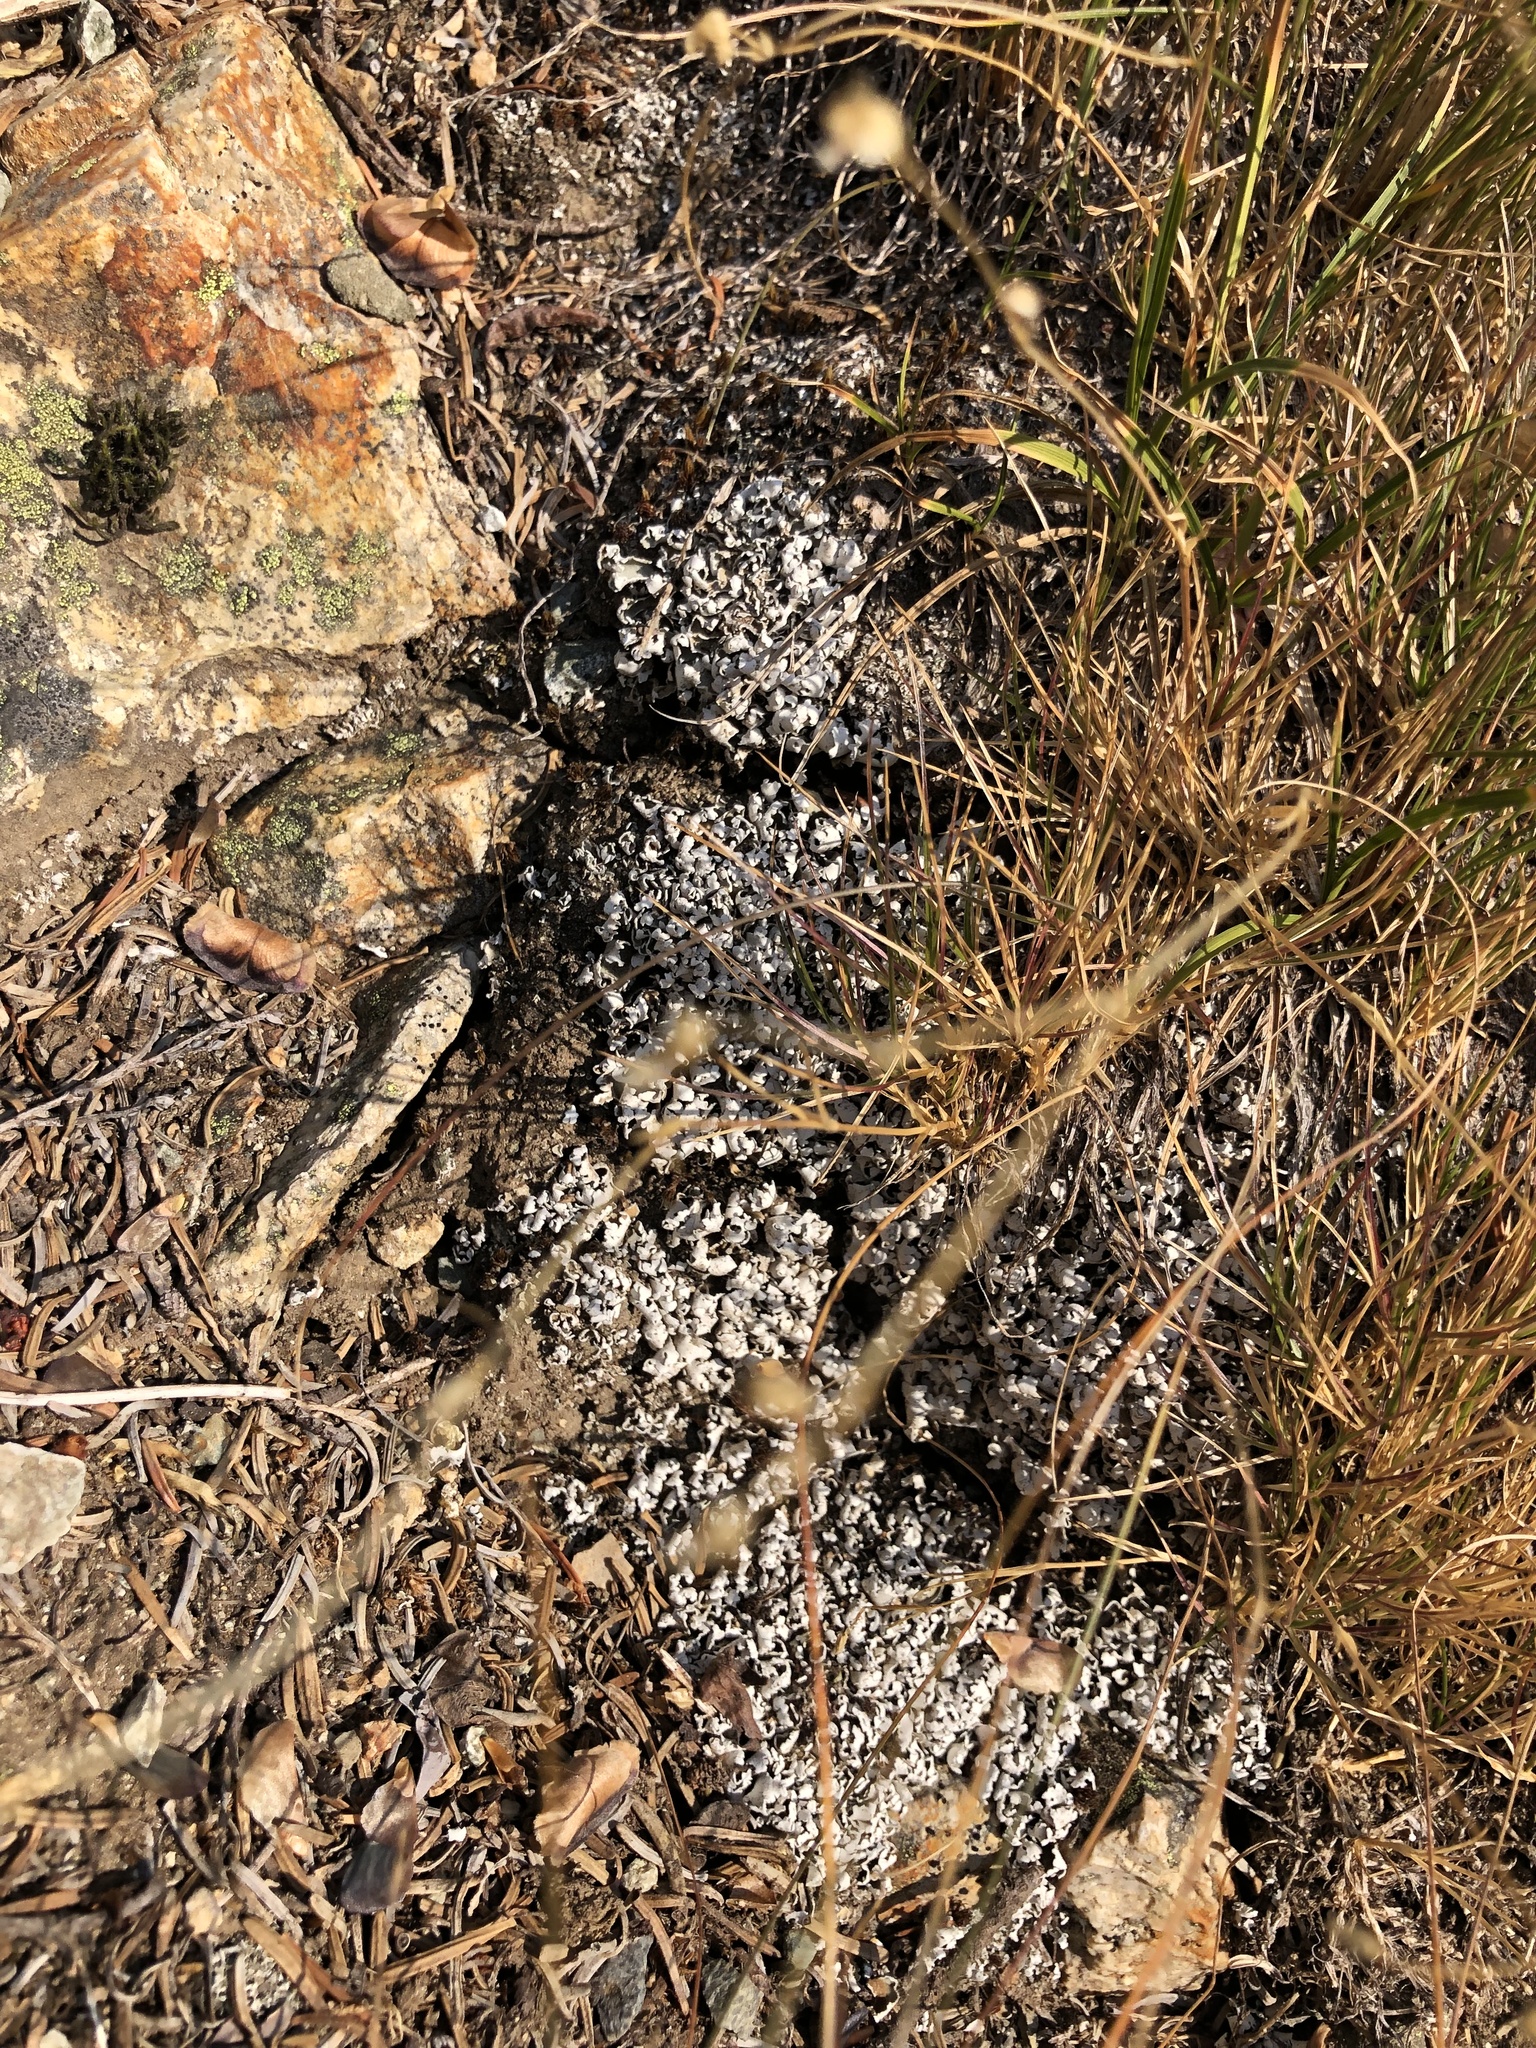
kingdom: Plantae
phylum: Tracheophyta
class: Lycopodiopsida
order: Selaginellales
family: Selaginellaceae
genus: Selaginella
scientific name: Selaginella densa
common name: Mountain spike-moss
